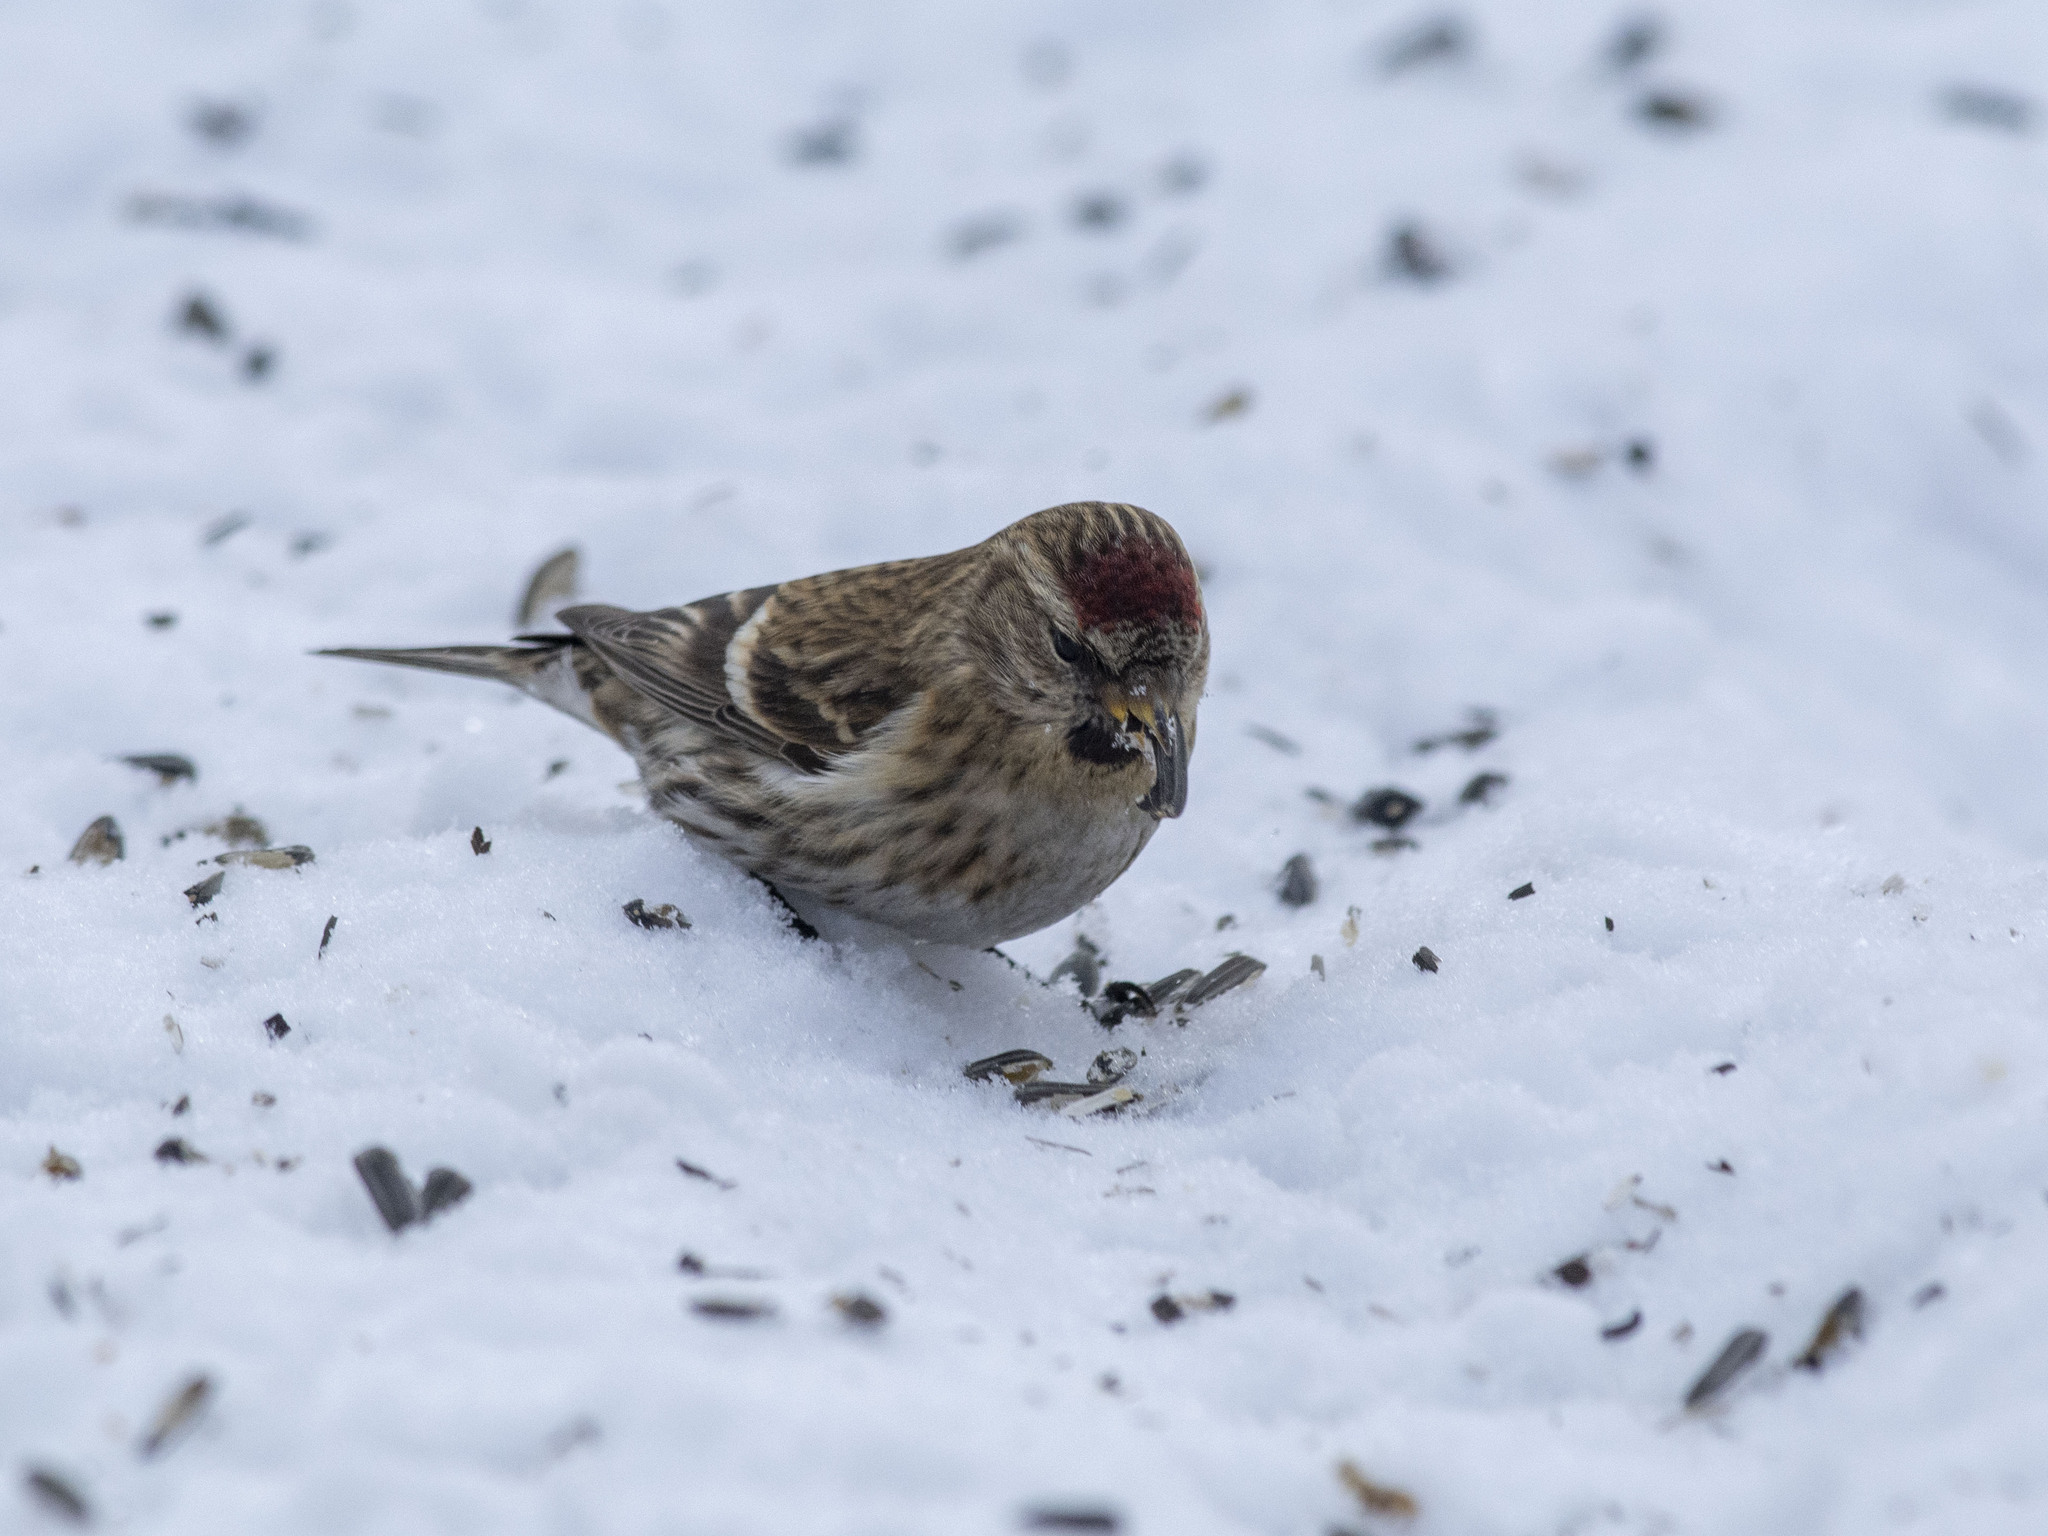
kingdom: Animalia
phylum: Chordata
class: Aves
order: Passeriformes
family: Fringillidae
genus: Acanthis
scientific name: Acanthis flammea
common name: Common redpoll
